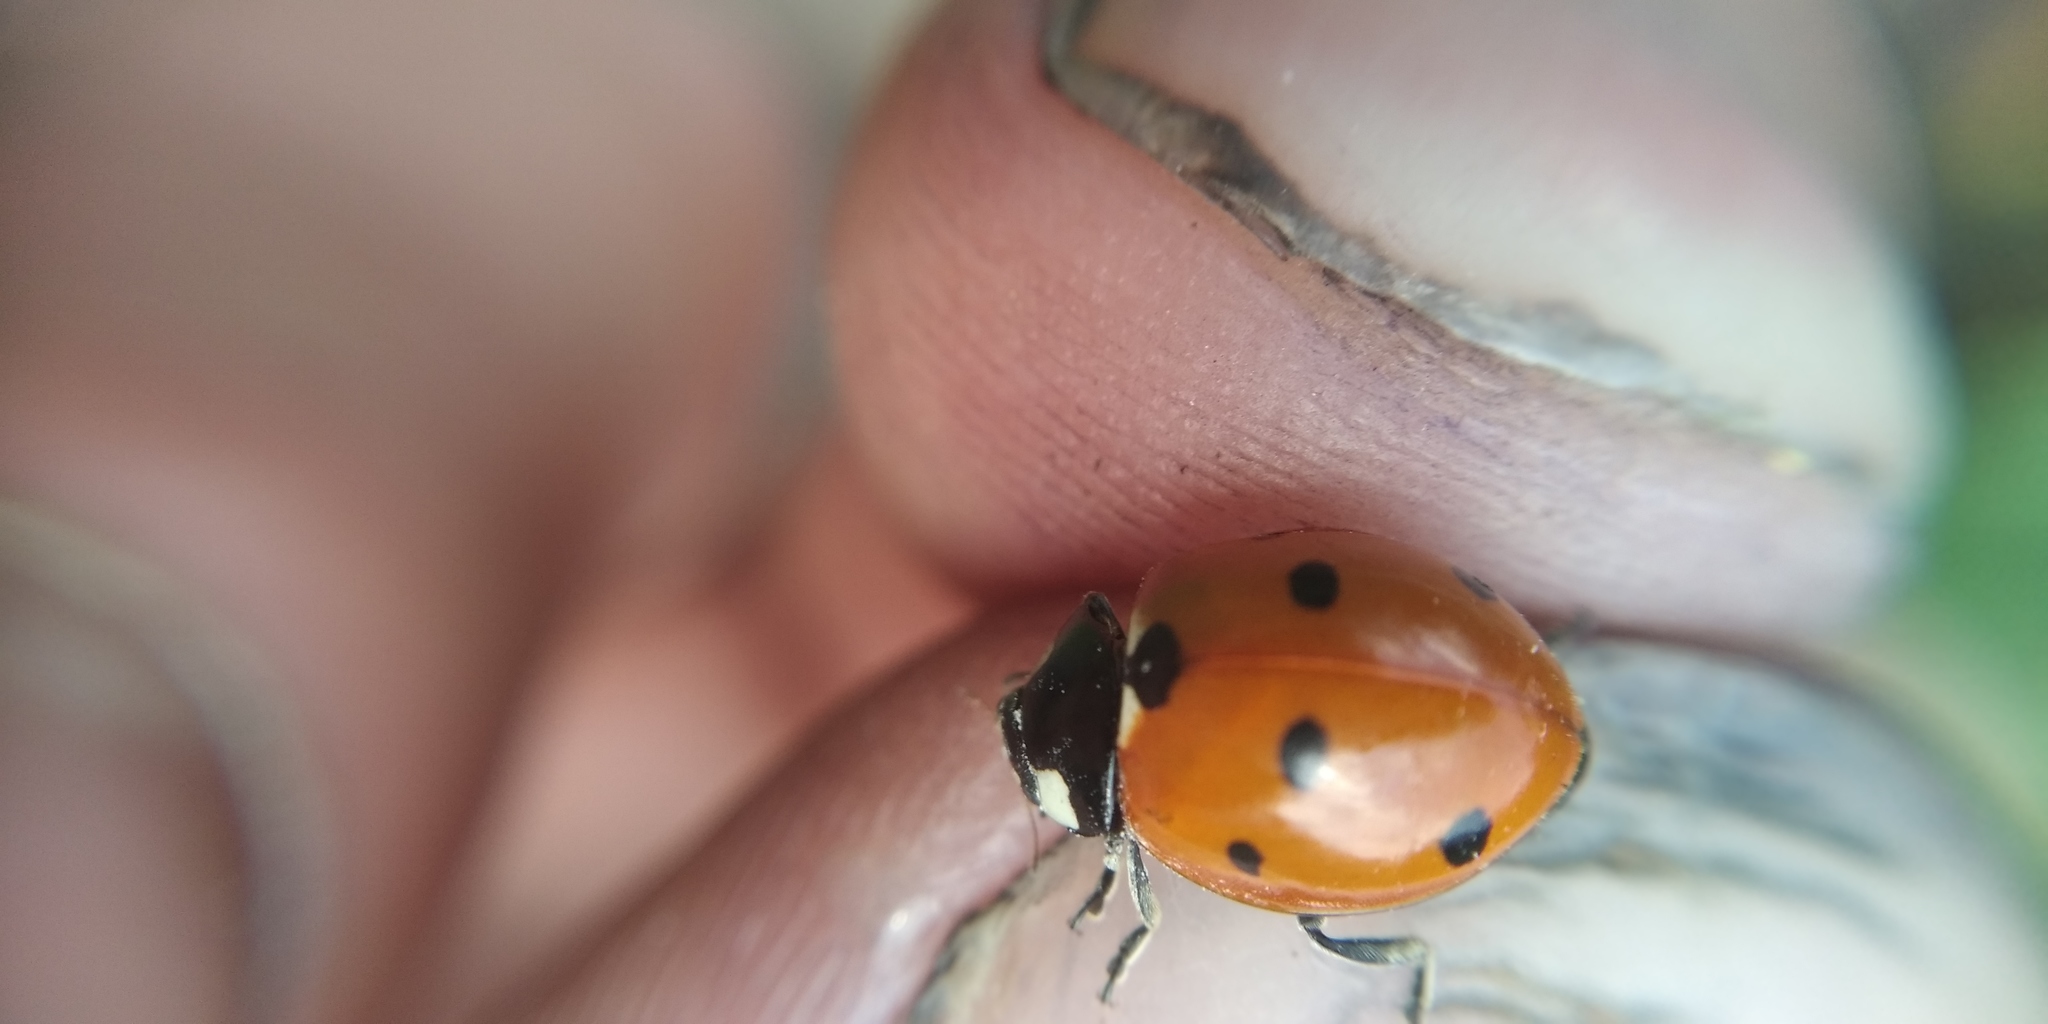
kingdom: Animalia
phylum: Arthropoda
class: Insecta
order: Coleoptera
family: Coccinellidae
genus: Coccinella
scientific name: Coccinella septempunctata
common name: Sevenspotted lady beetle
